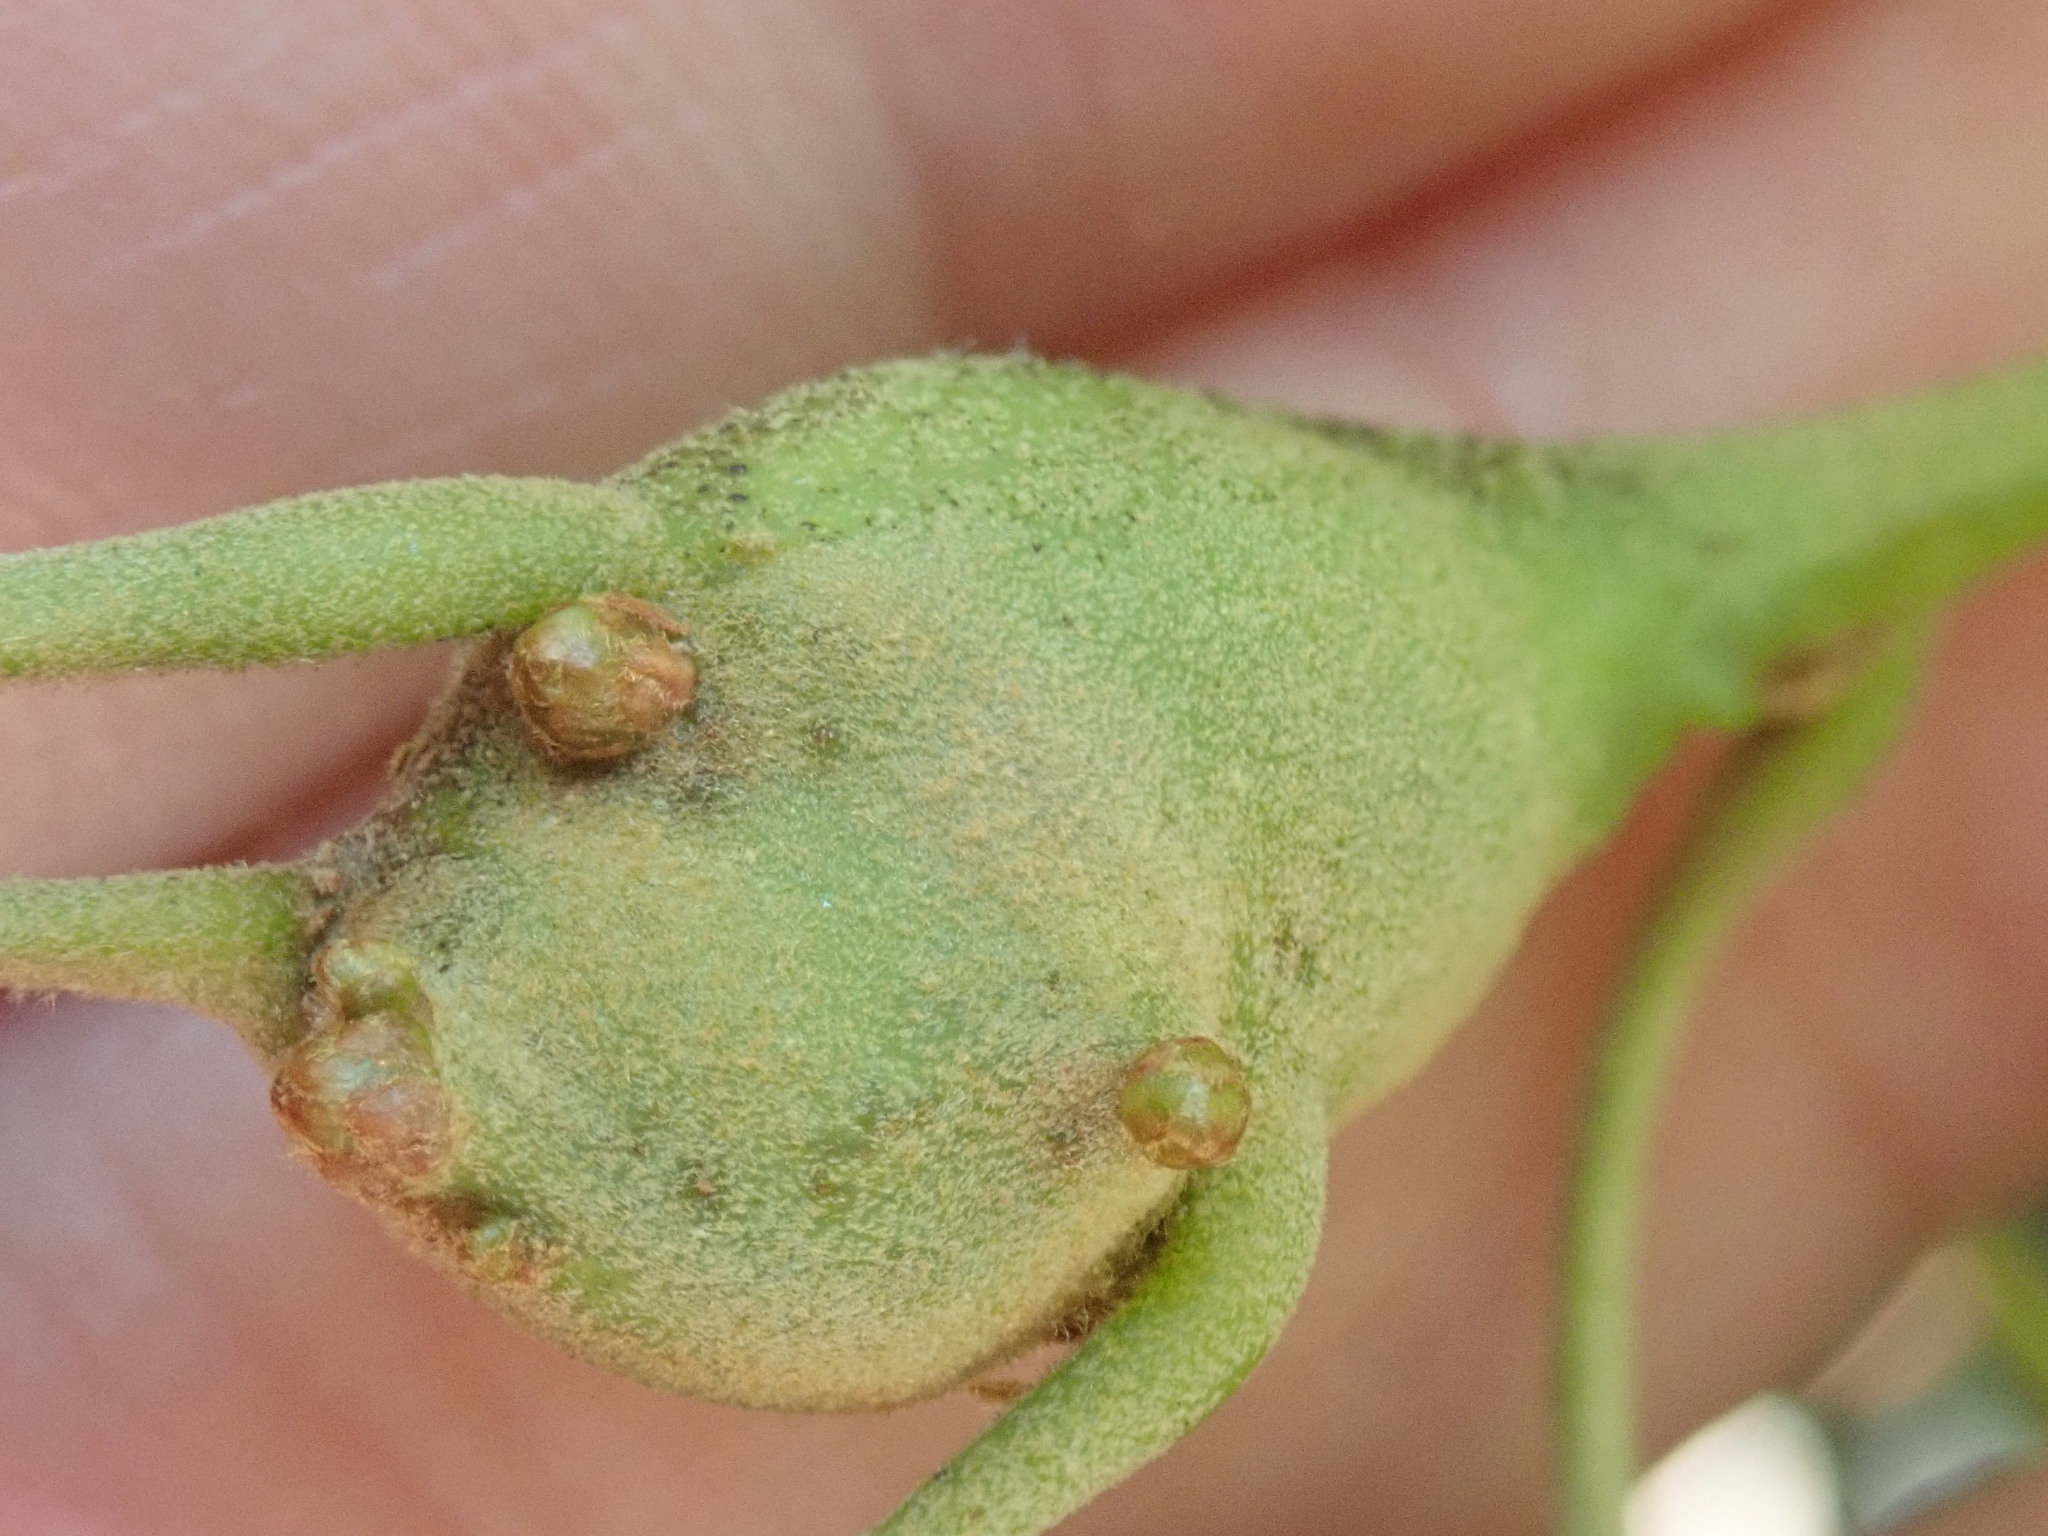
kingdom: Animalia
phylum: Arthropoda
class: Insecta
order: Hymenoptera
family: Cynipidae
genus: Zapatella
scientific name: Zapatella quercusphellos
